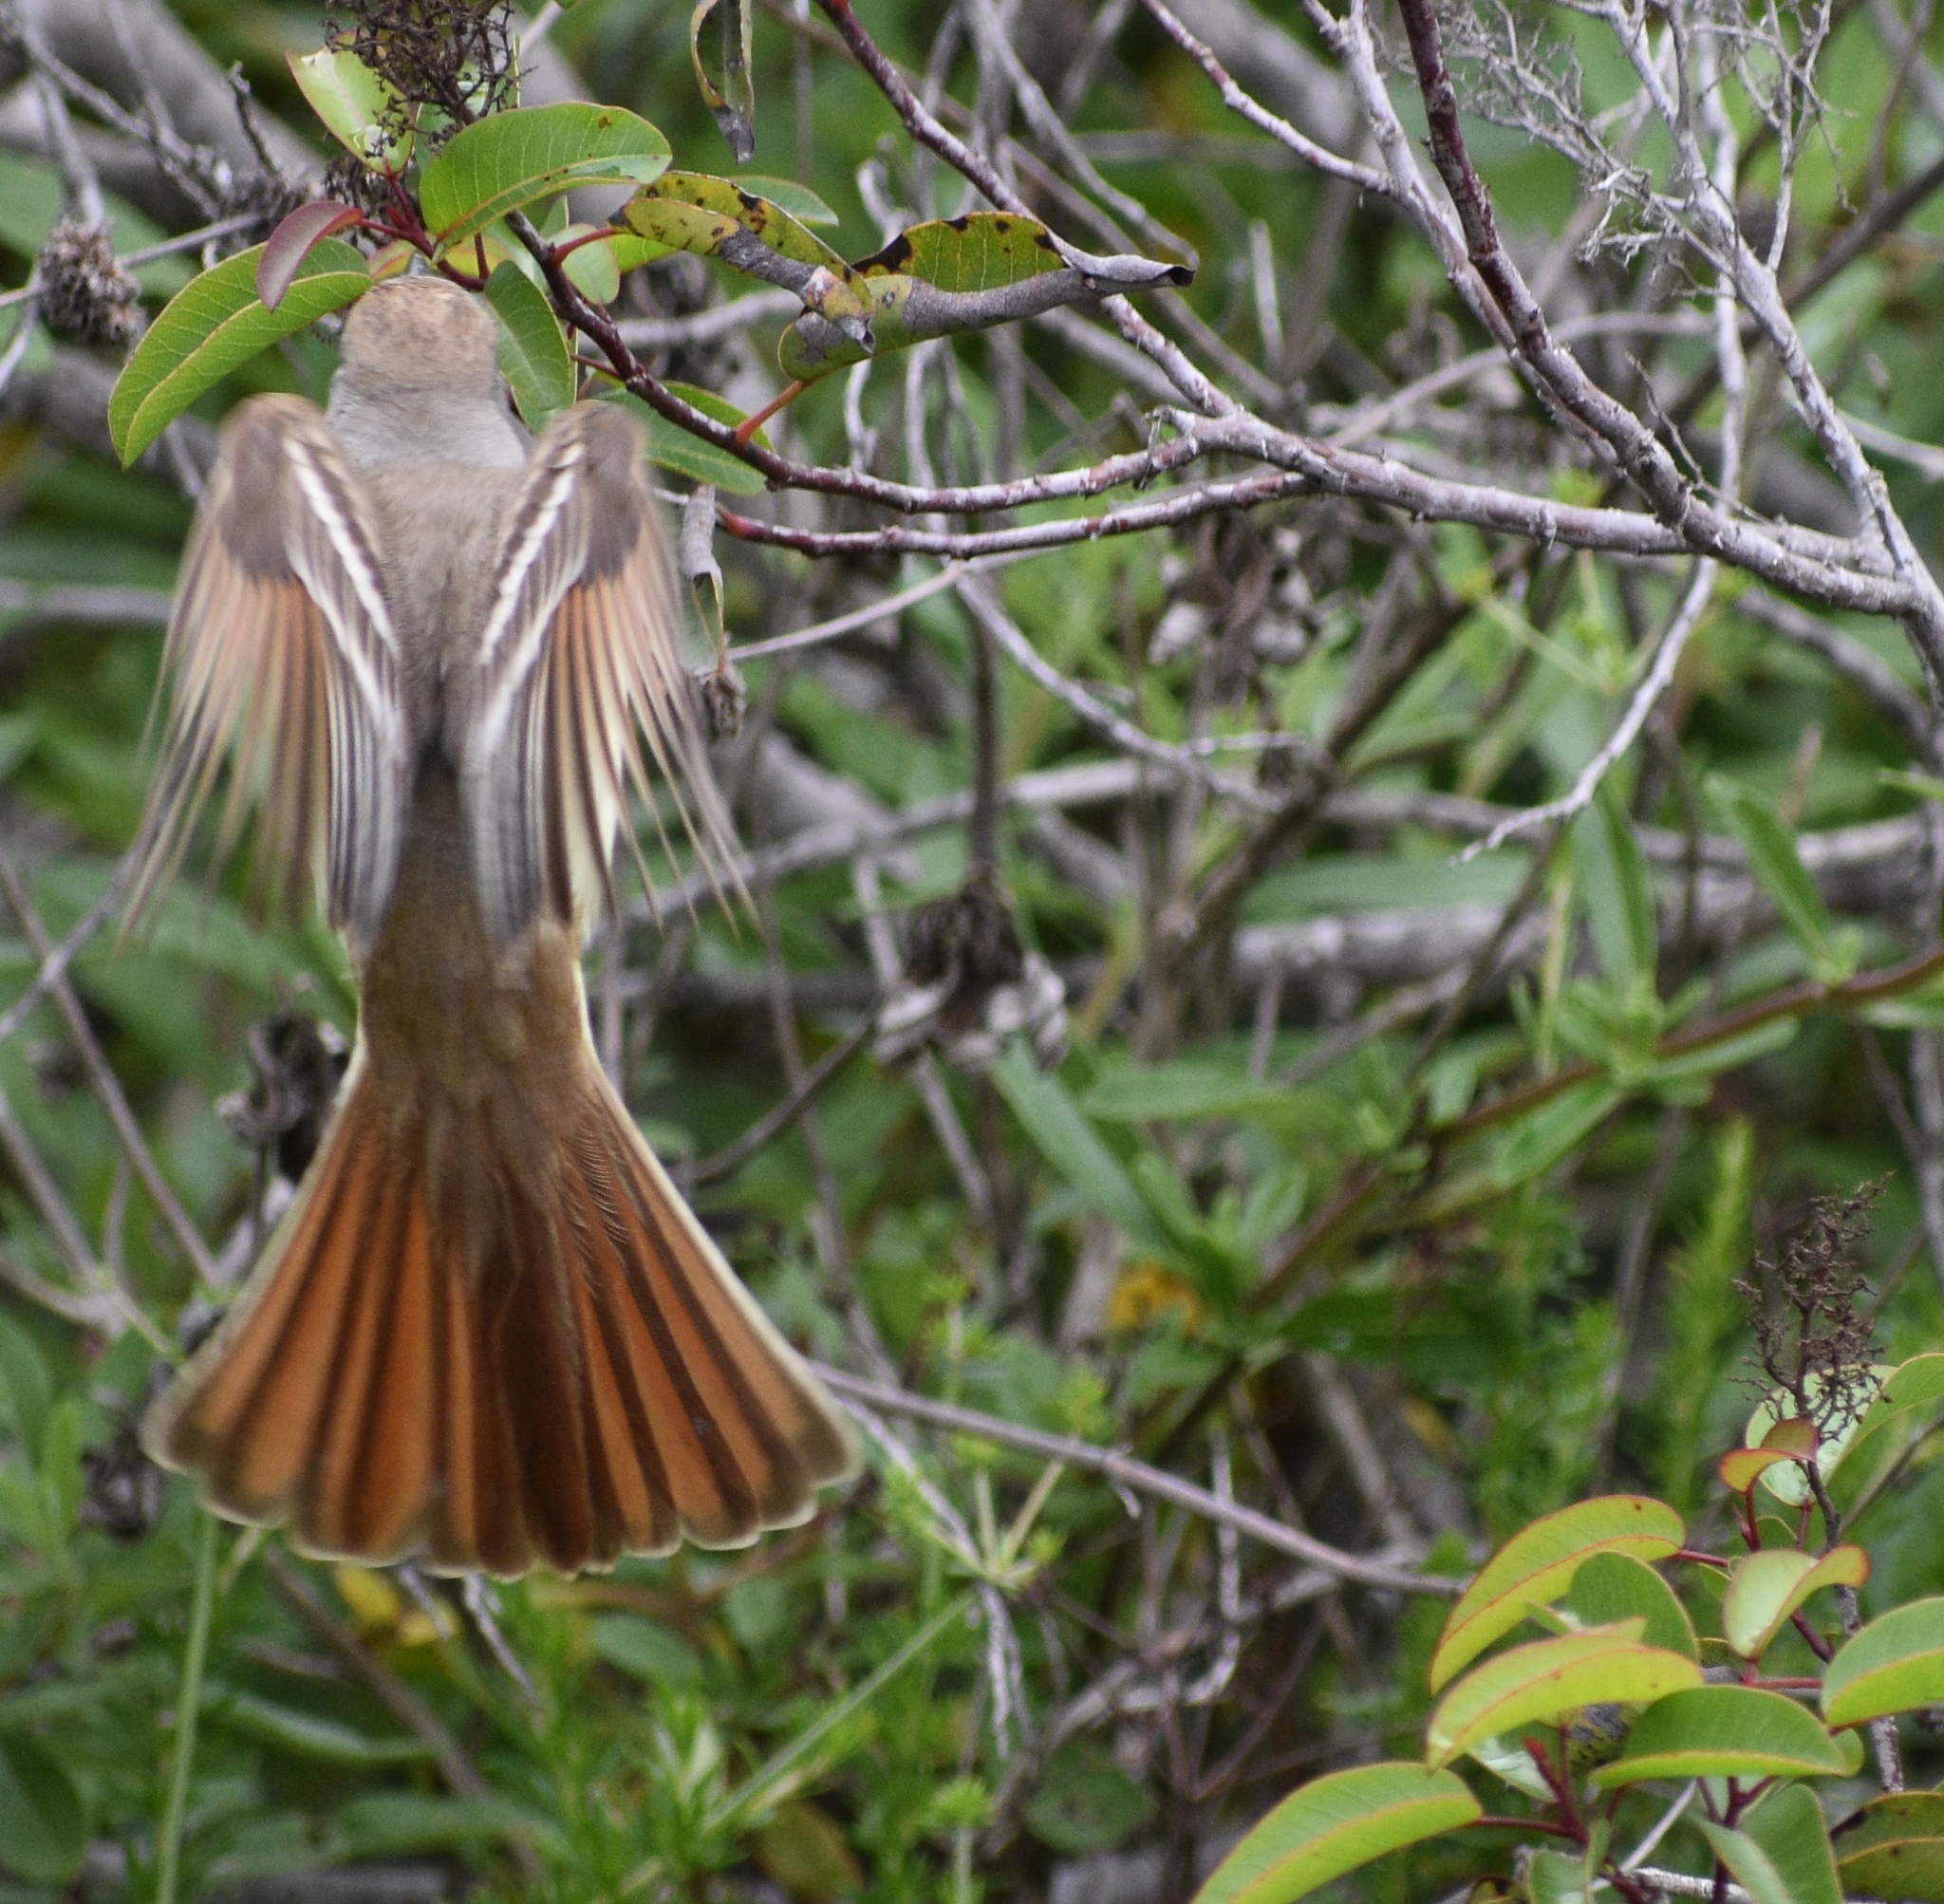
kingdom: Animalia
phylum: Chordata
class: Aves
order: Passeriformes
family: Tyrannidae
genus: Myiarchus
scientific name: Myiarchus cinerascens
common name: Ash-throated flycatcher
